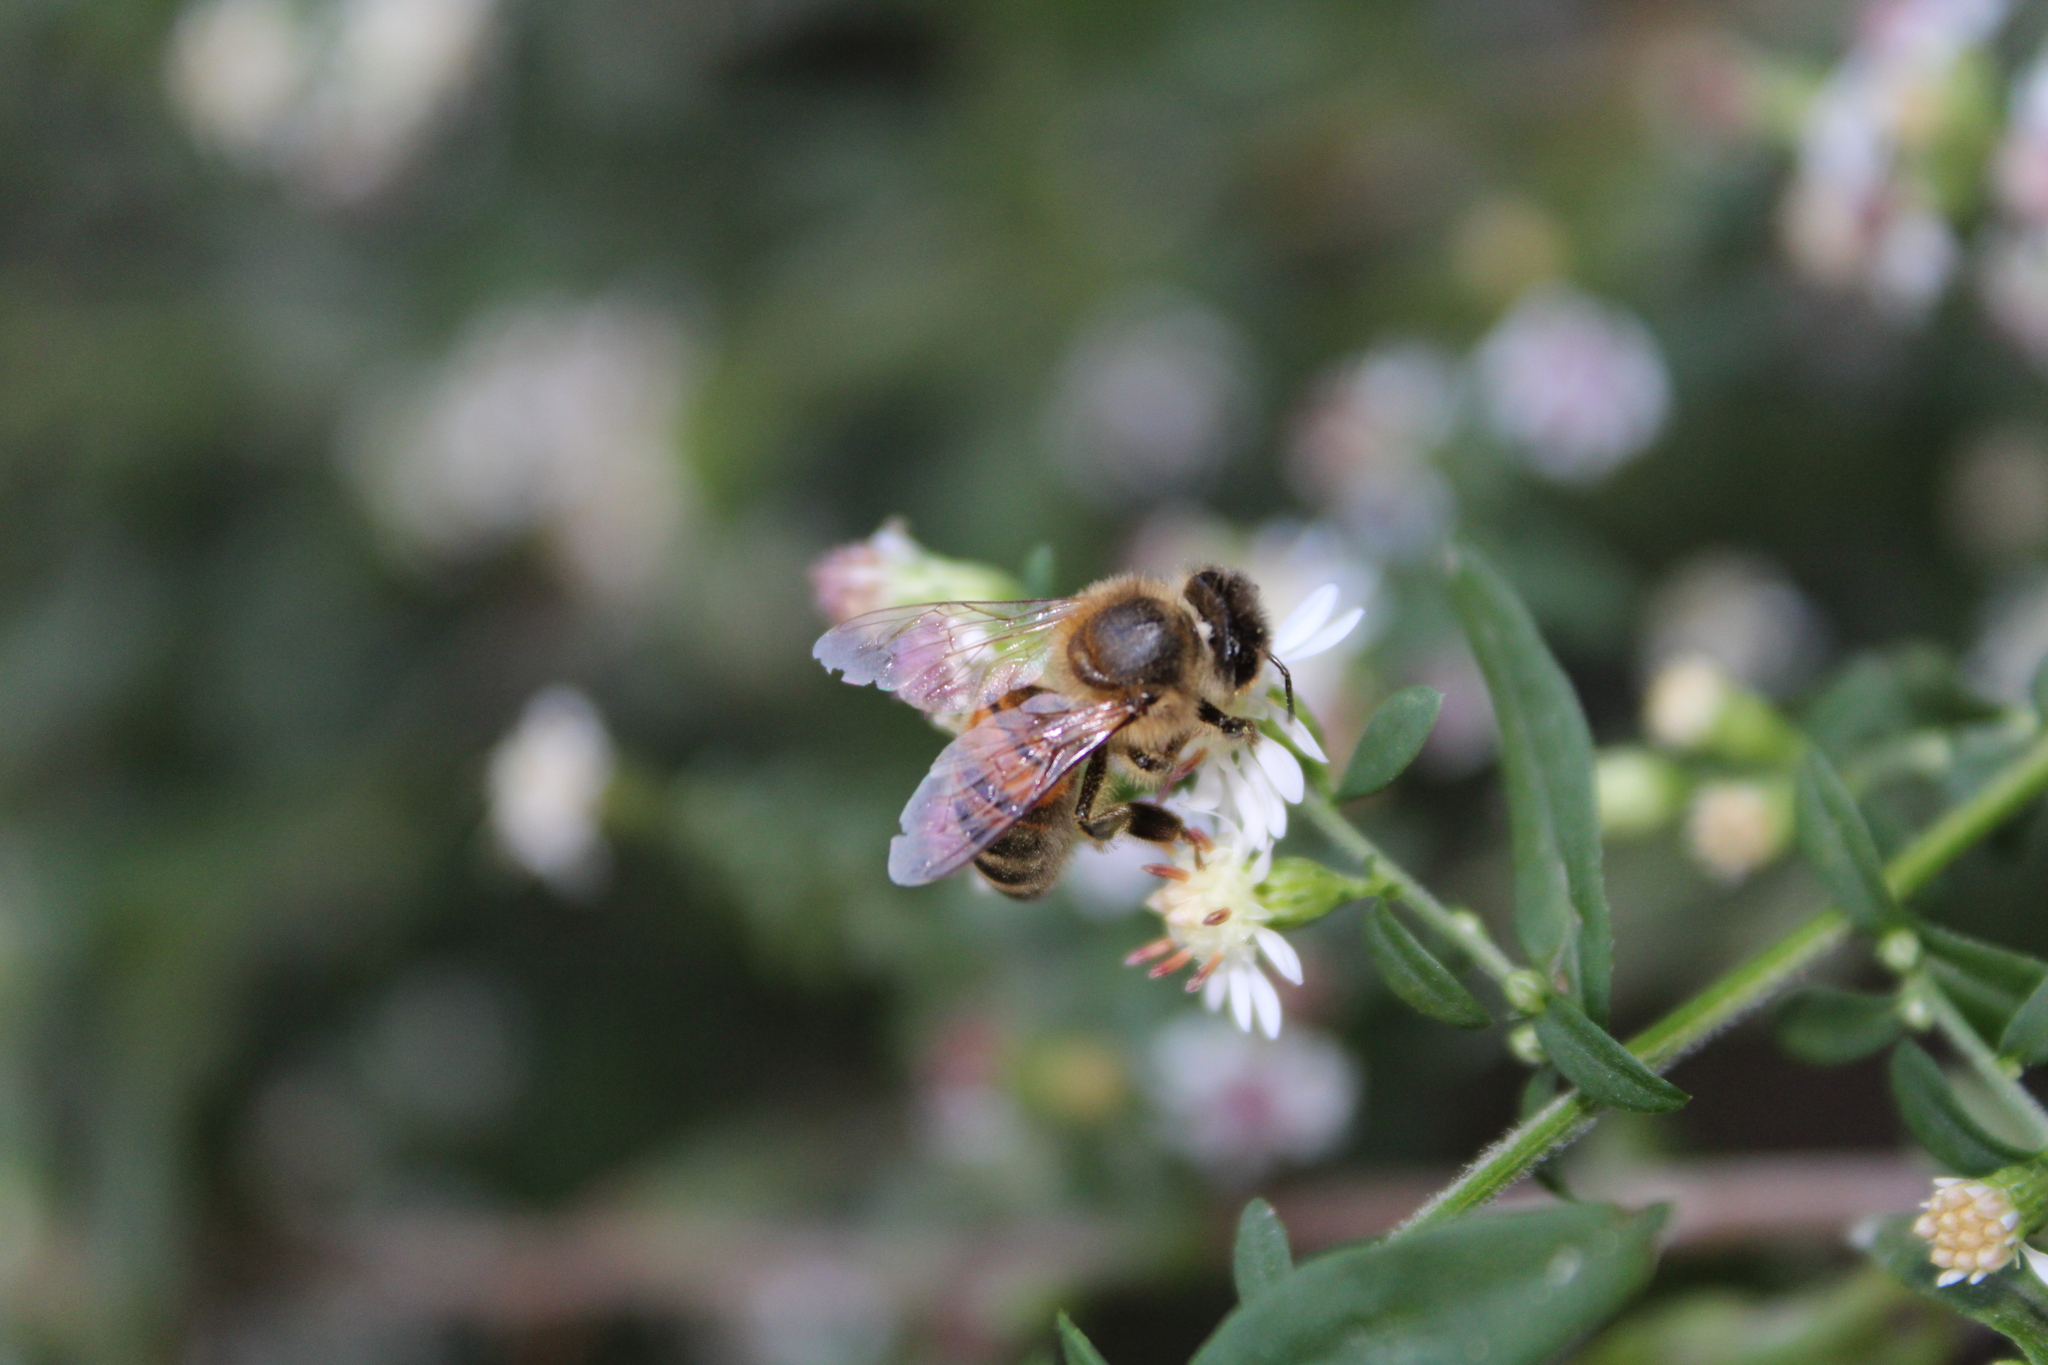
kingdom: Animalia
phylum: Arthropoda
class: Insecta
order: Hymenoptera
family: Apidae
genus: Apis
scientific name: Apis mellifera
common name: Honey bee
